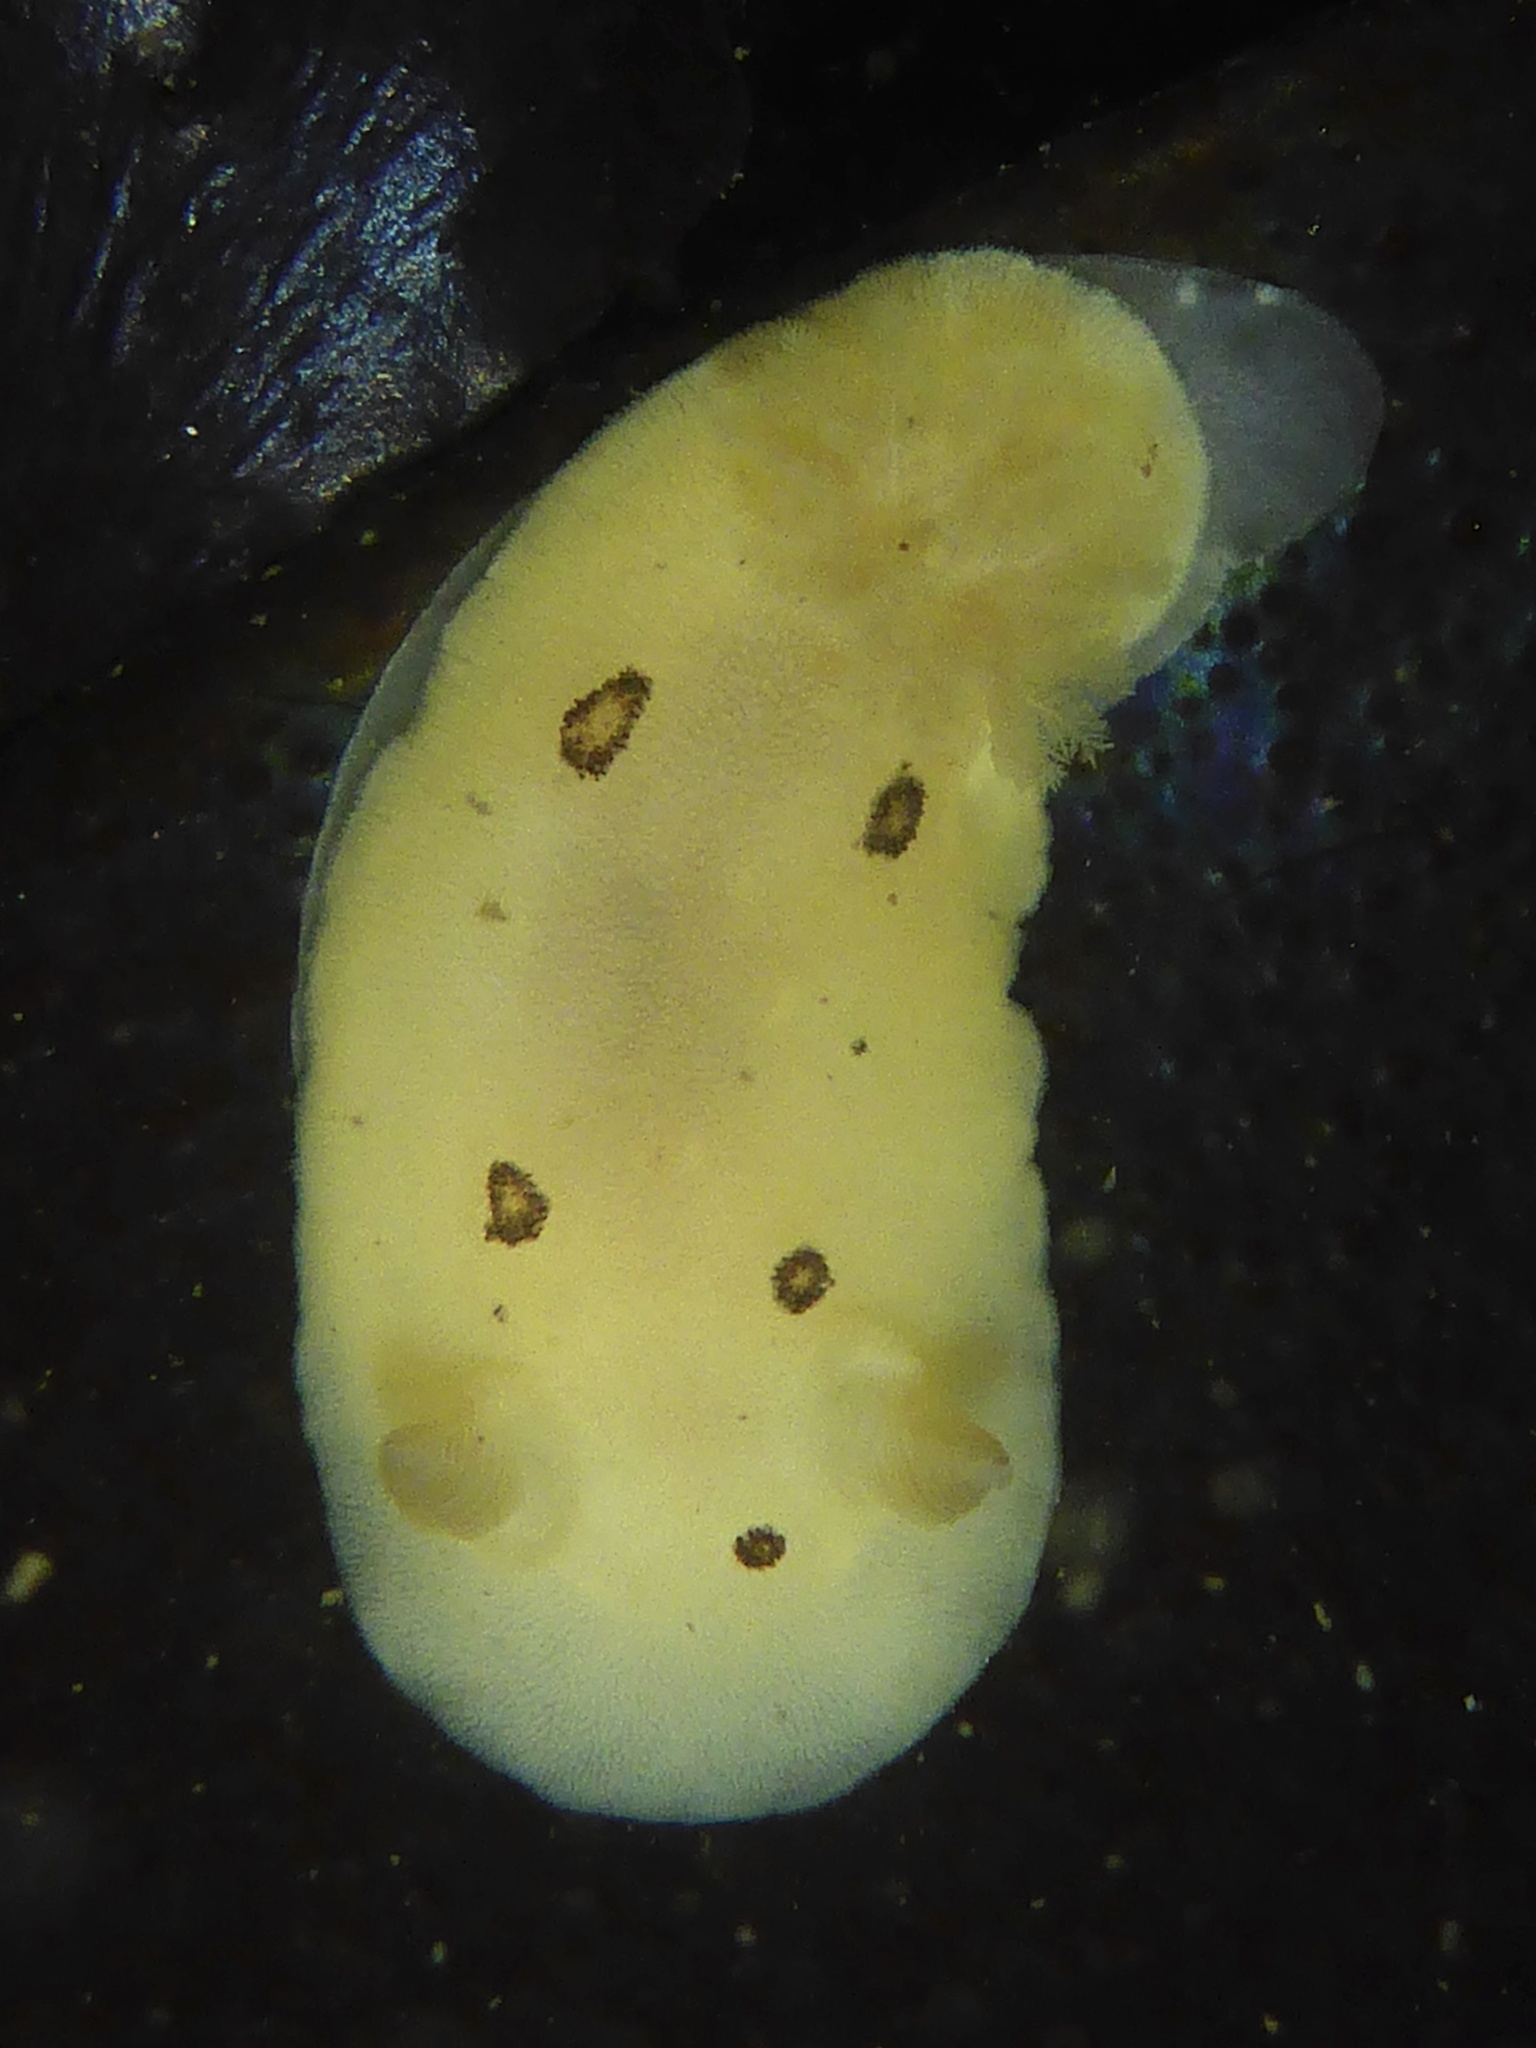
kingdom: Animalia
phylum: Mollusca
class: Gastropoda
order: Nudibranchia
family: Discodorididae
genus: Diaulula
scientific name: Diaulula sandiegensis
